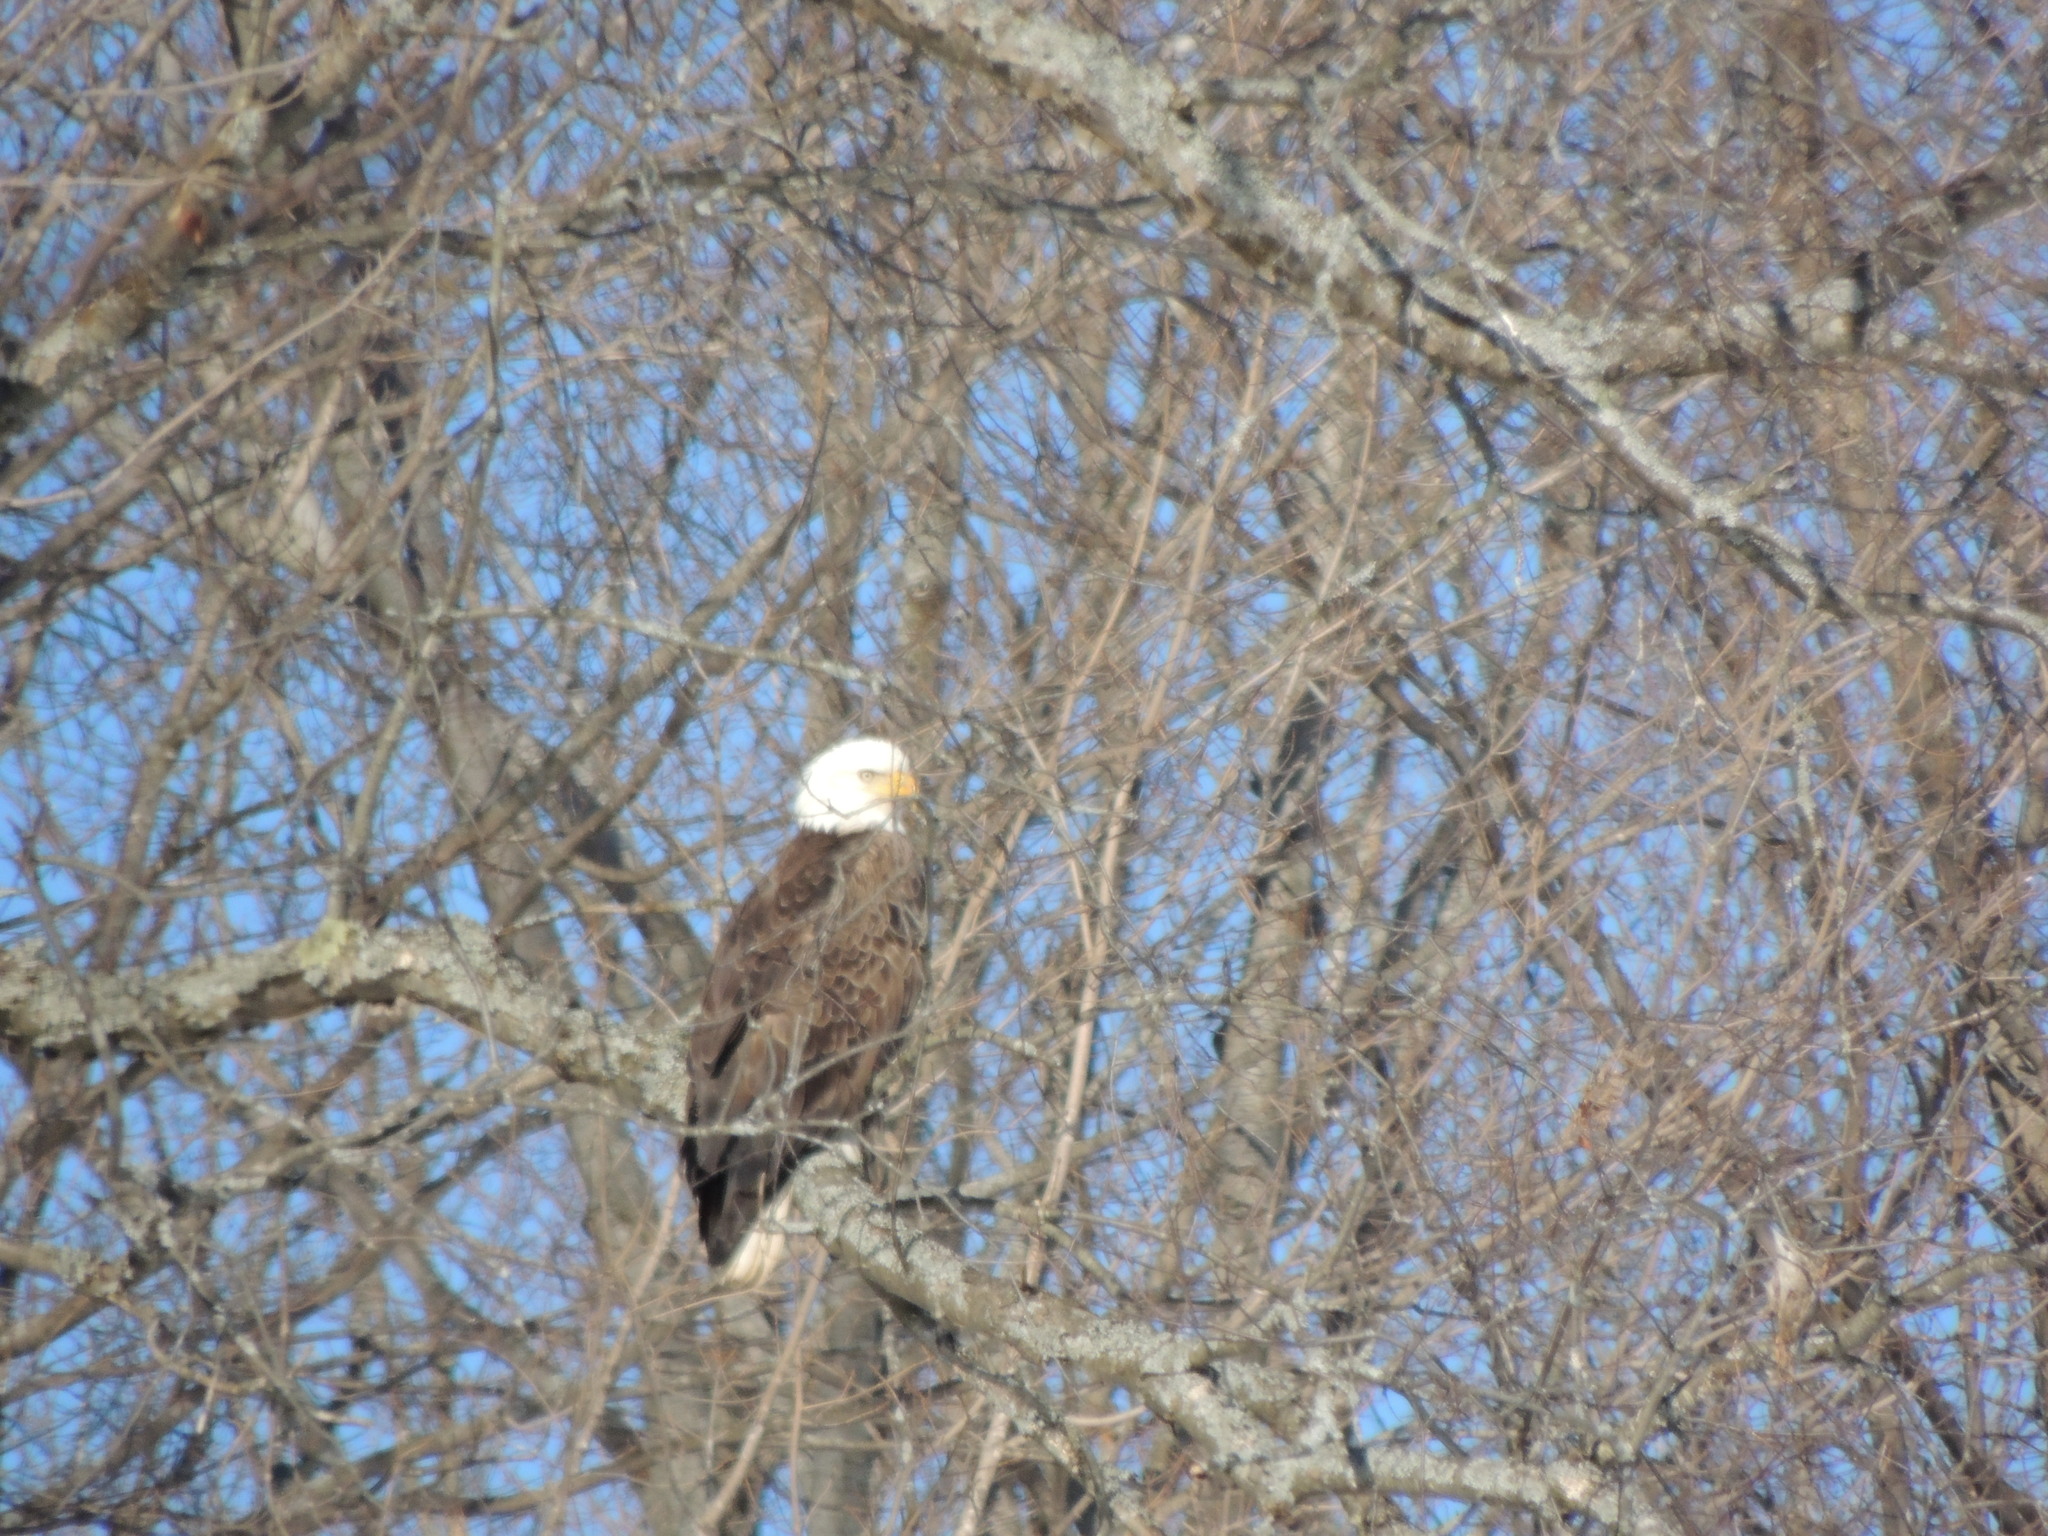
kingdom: Animalia
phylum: Chordata
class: Aves
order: Accipitriformes
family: Accipitridae
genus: Haliaeetus
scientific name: Haliaeetus leucocephalus
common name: Bald eagle
